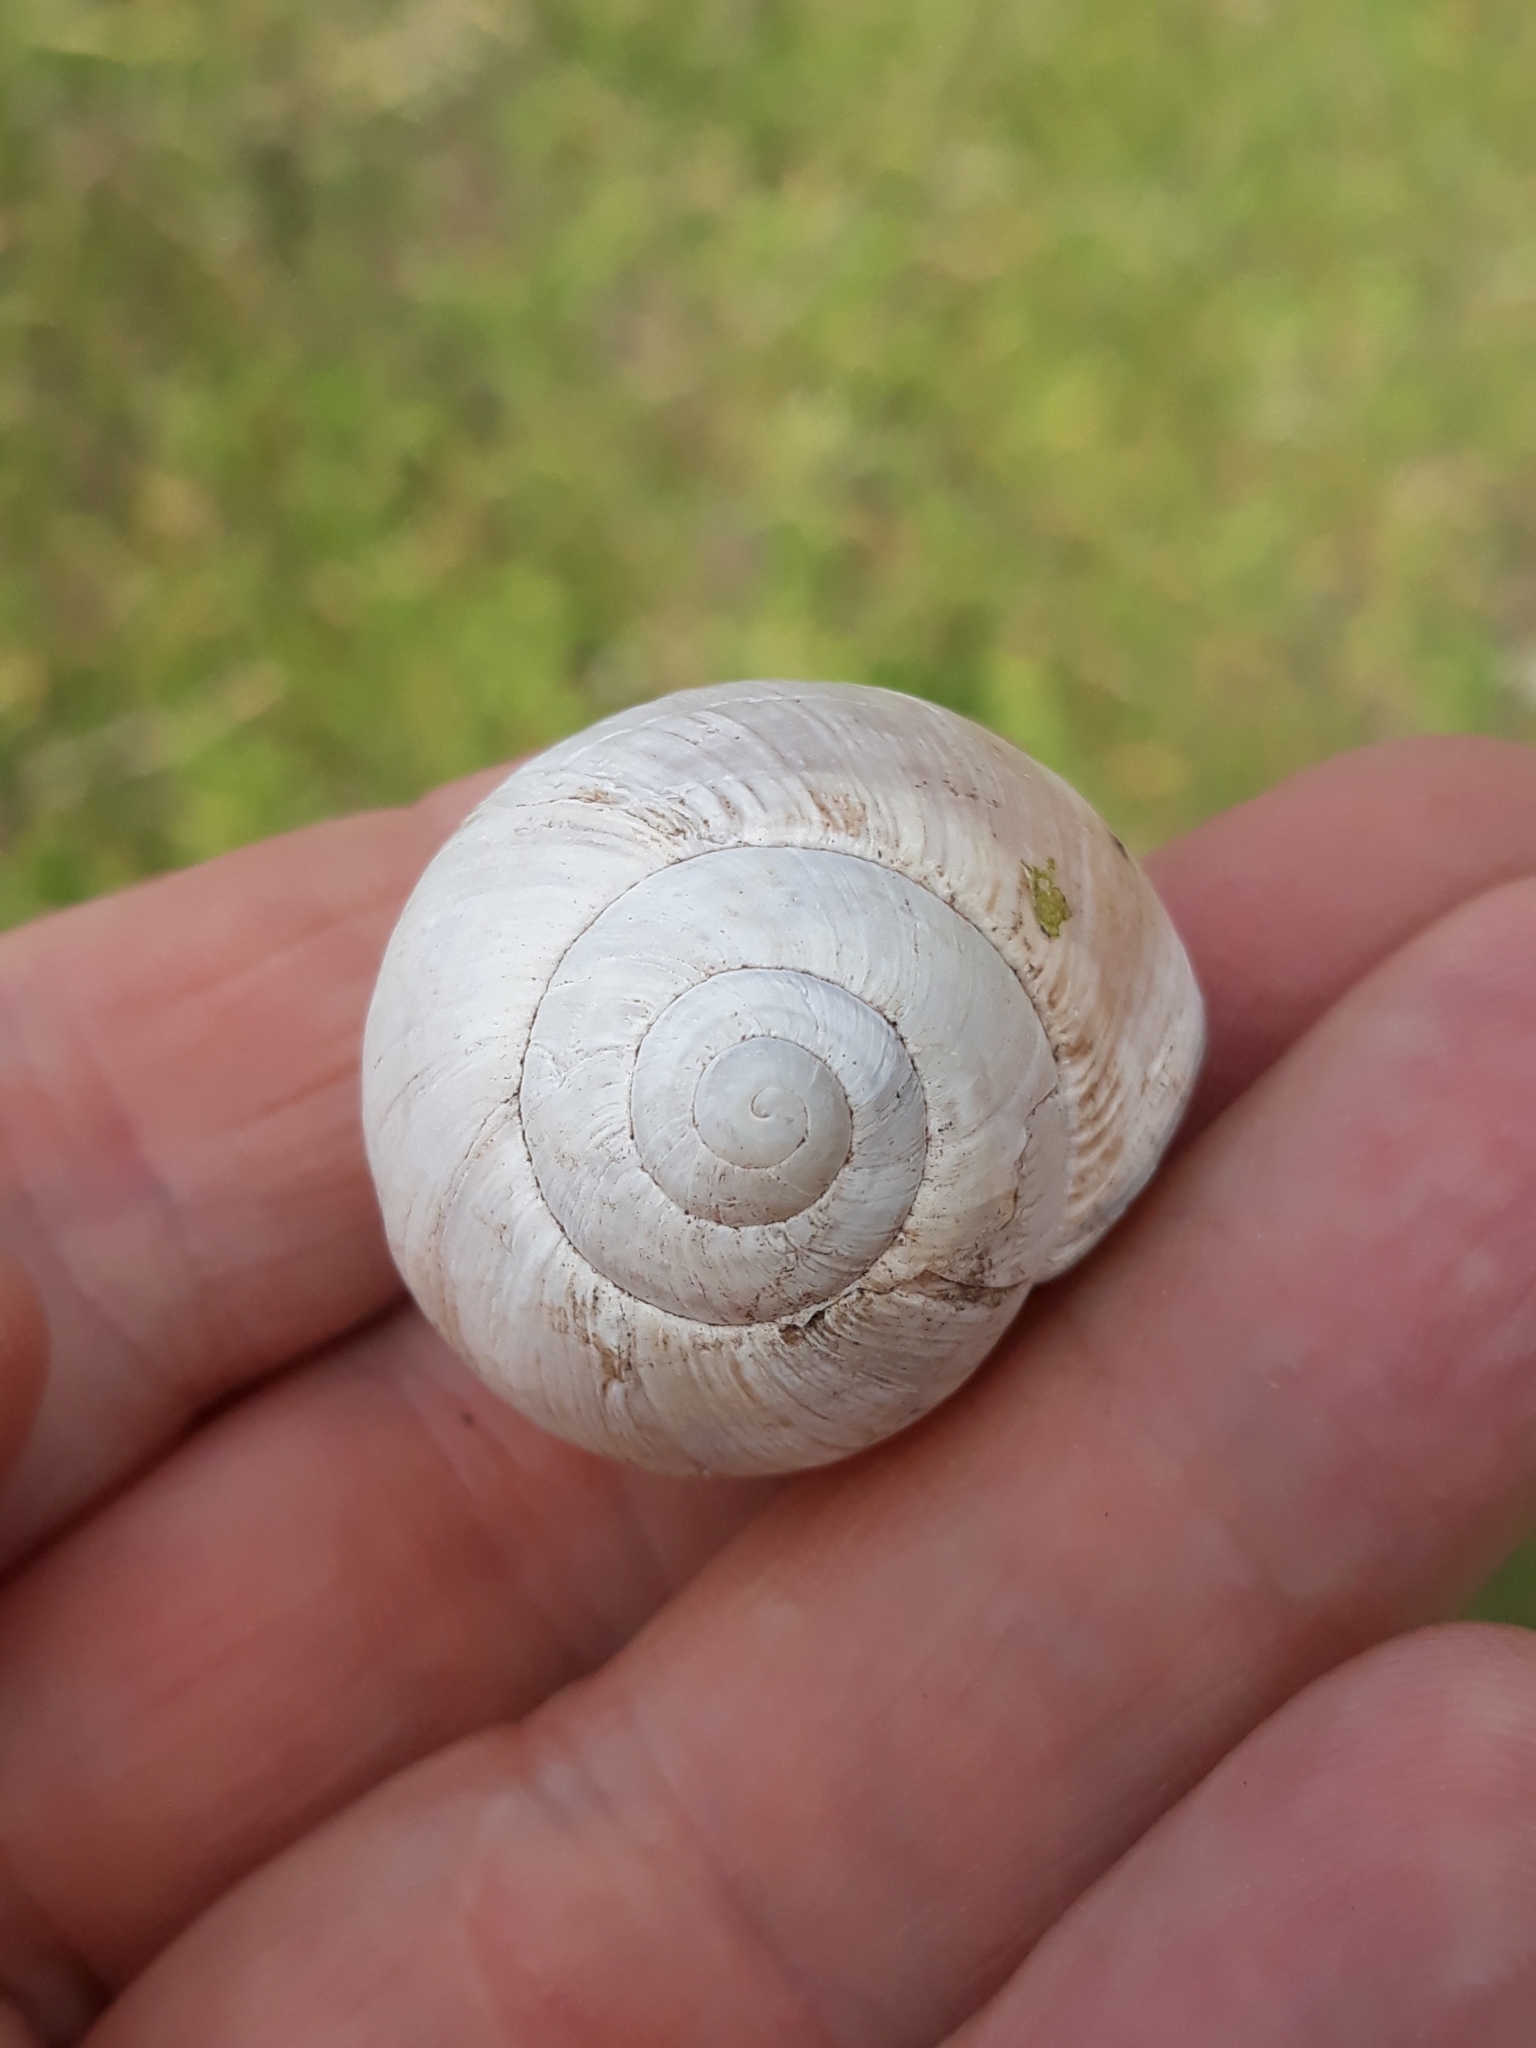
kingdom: Animalia
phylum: Mollusca
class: Gastropoda
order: Stylommatophora
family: Helicidae
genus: Helix
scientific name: Helix melanostoma
